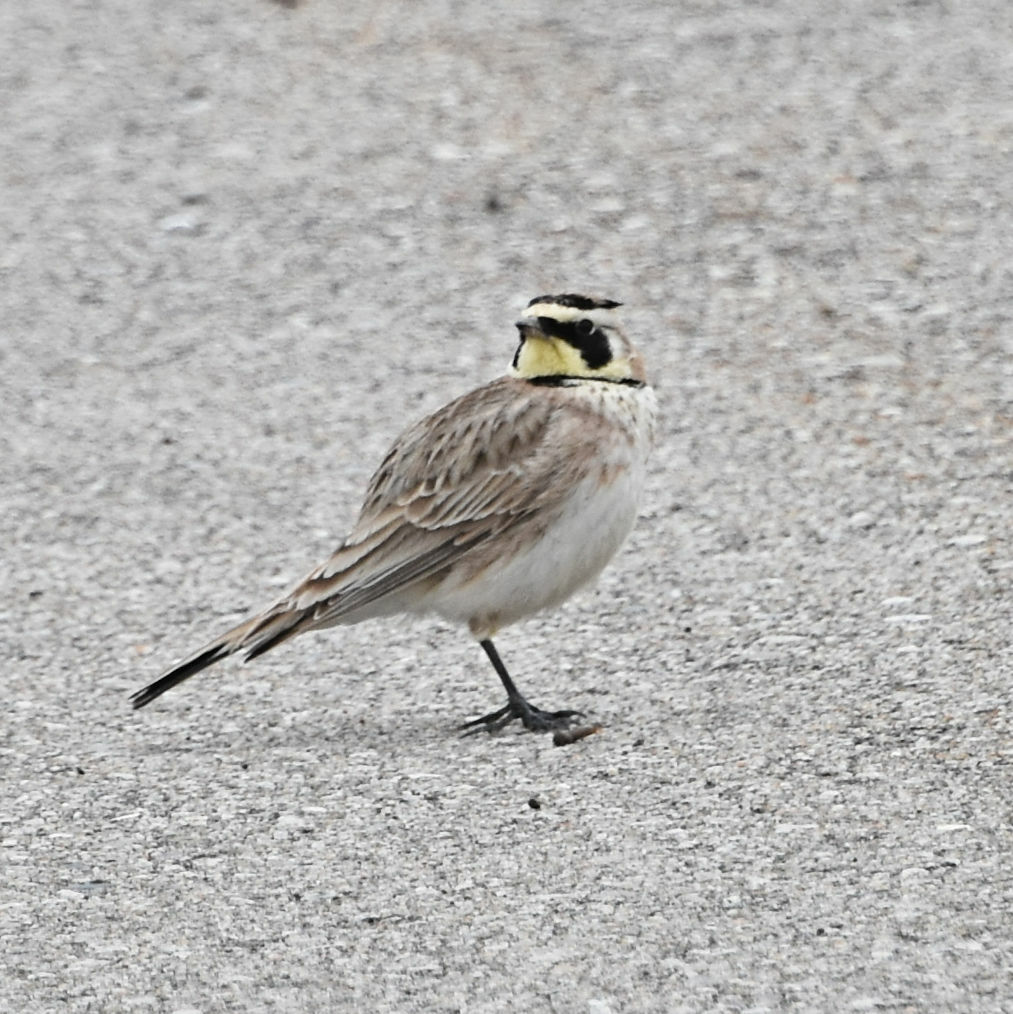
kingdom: Animalia
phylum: Chordata
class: Aves
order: Passeriformes
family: Alaudidae
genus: Eremophila
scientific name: Eremophila alpestris
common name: Horned lark
